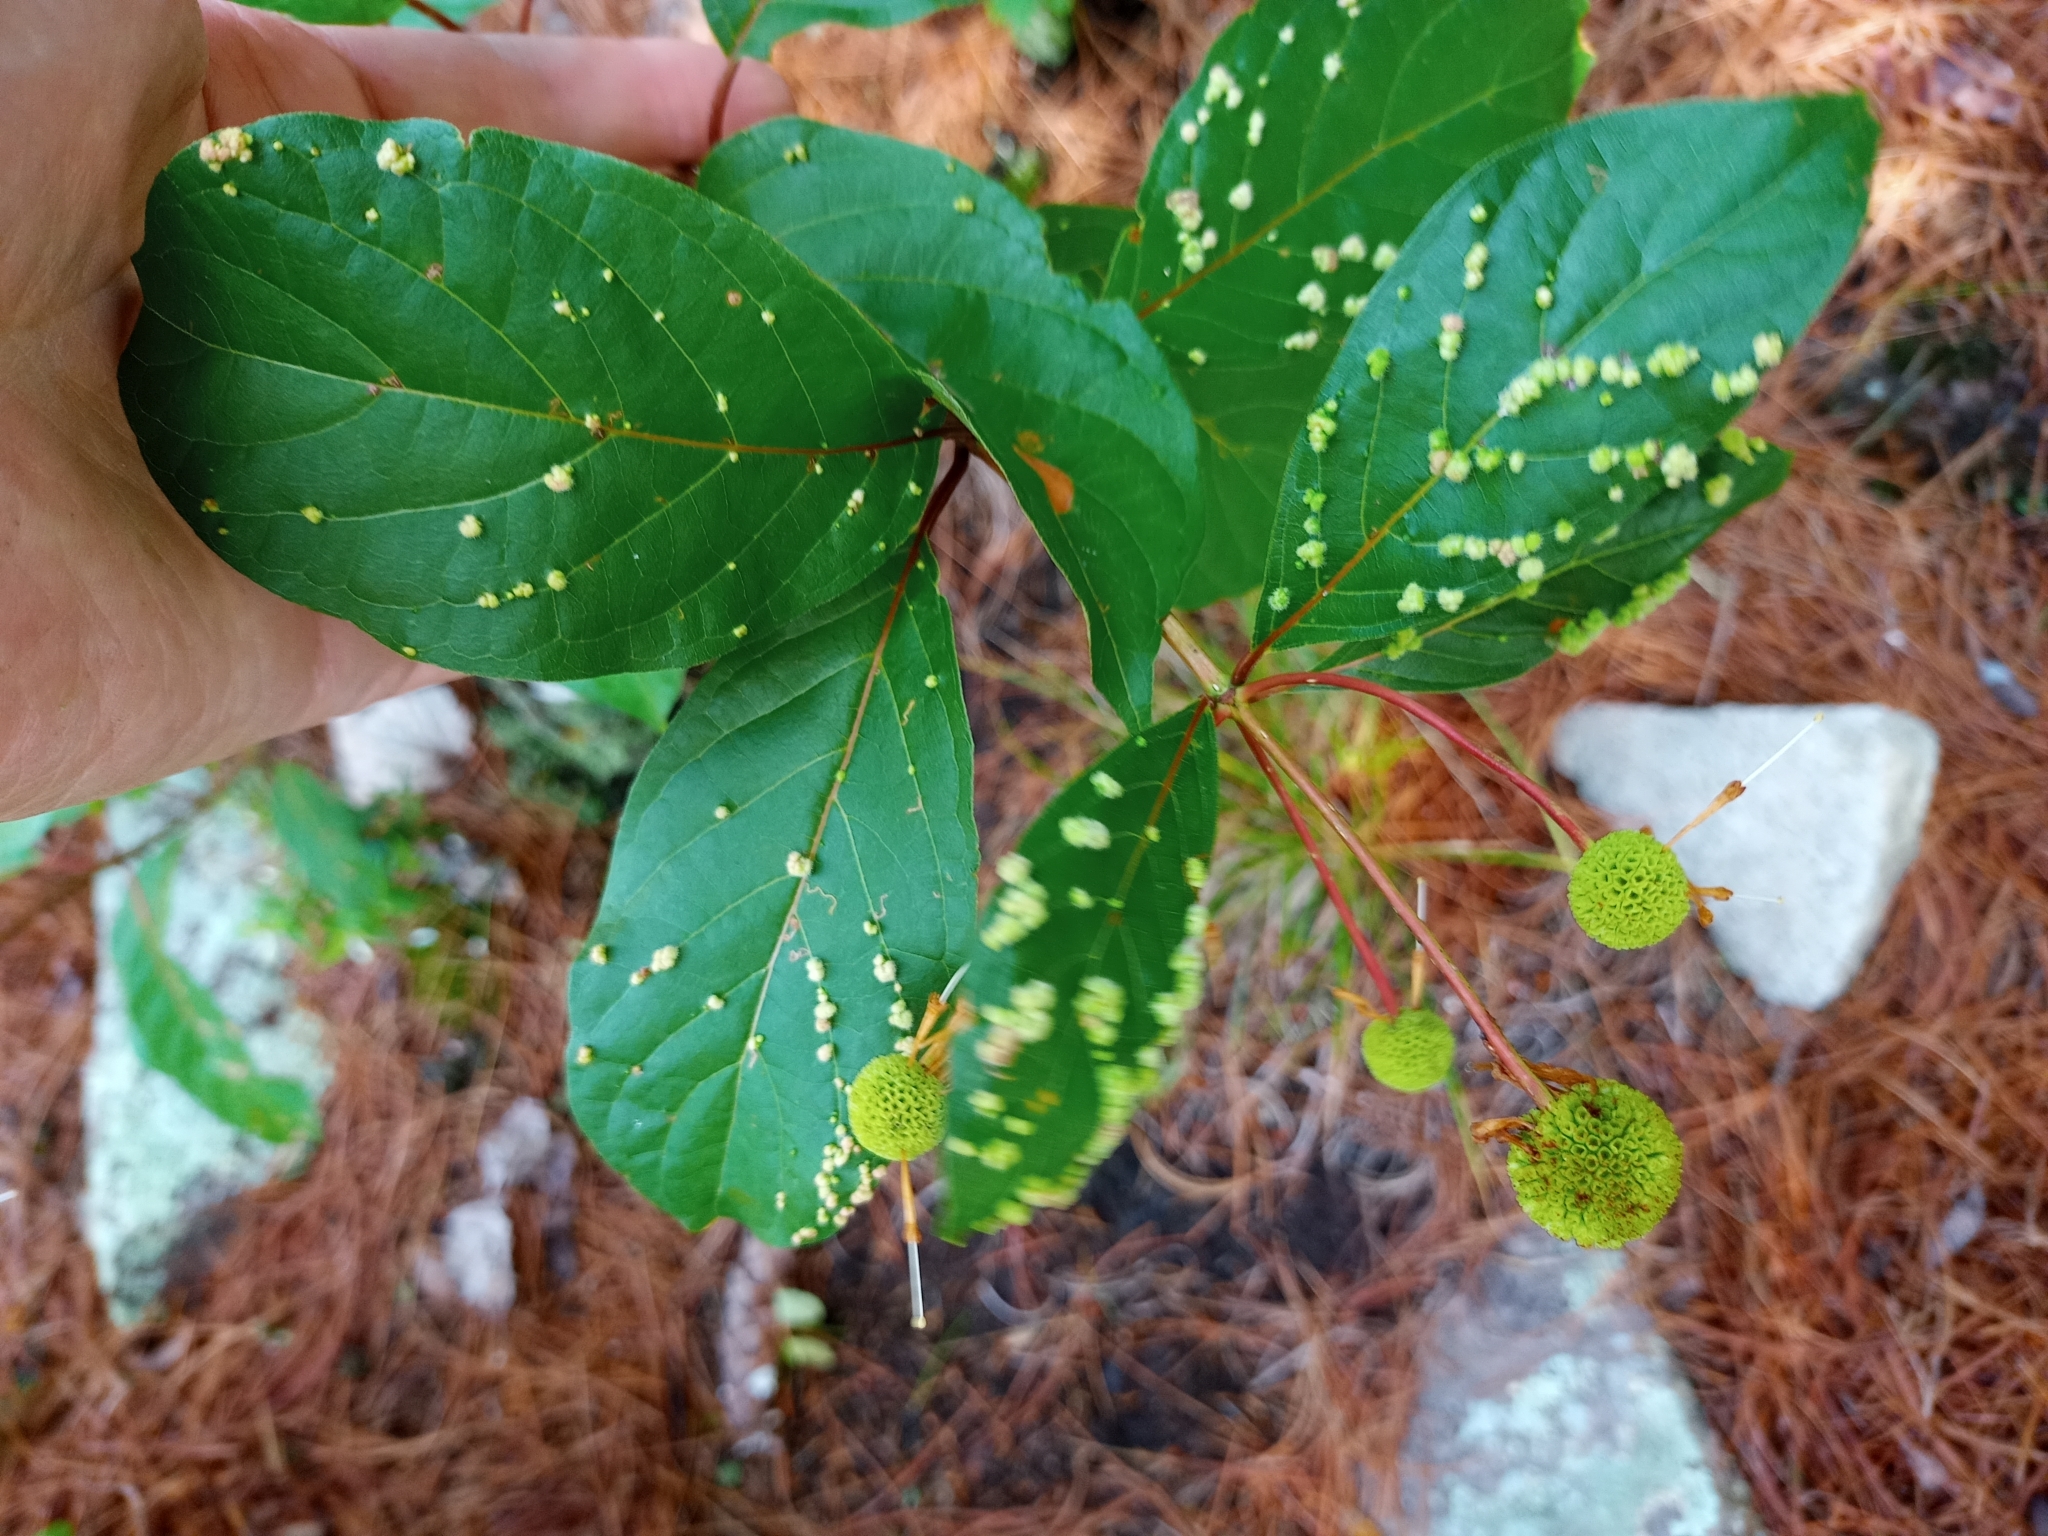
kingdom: Plantae
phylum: Tracheophyta
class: Magnoliopsida
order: Gentianales
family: Rubiaceae
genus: Cephalanthus
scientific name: Cephalanthus occidentalis
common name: Button-willow
